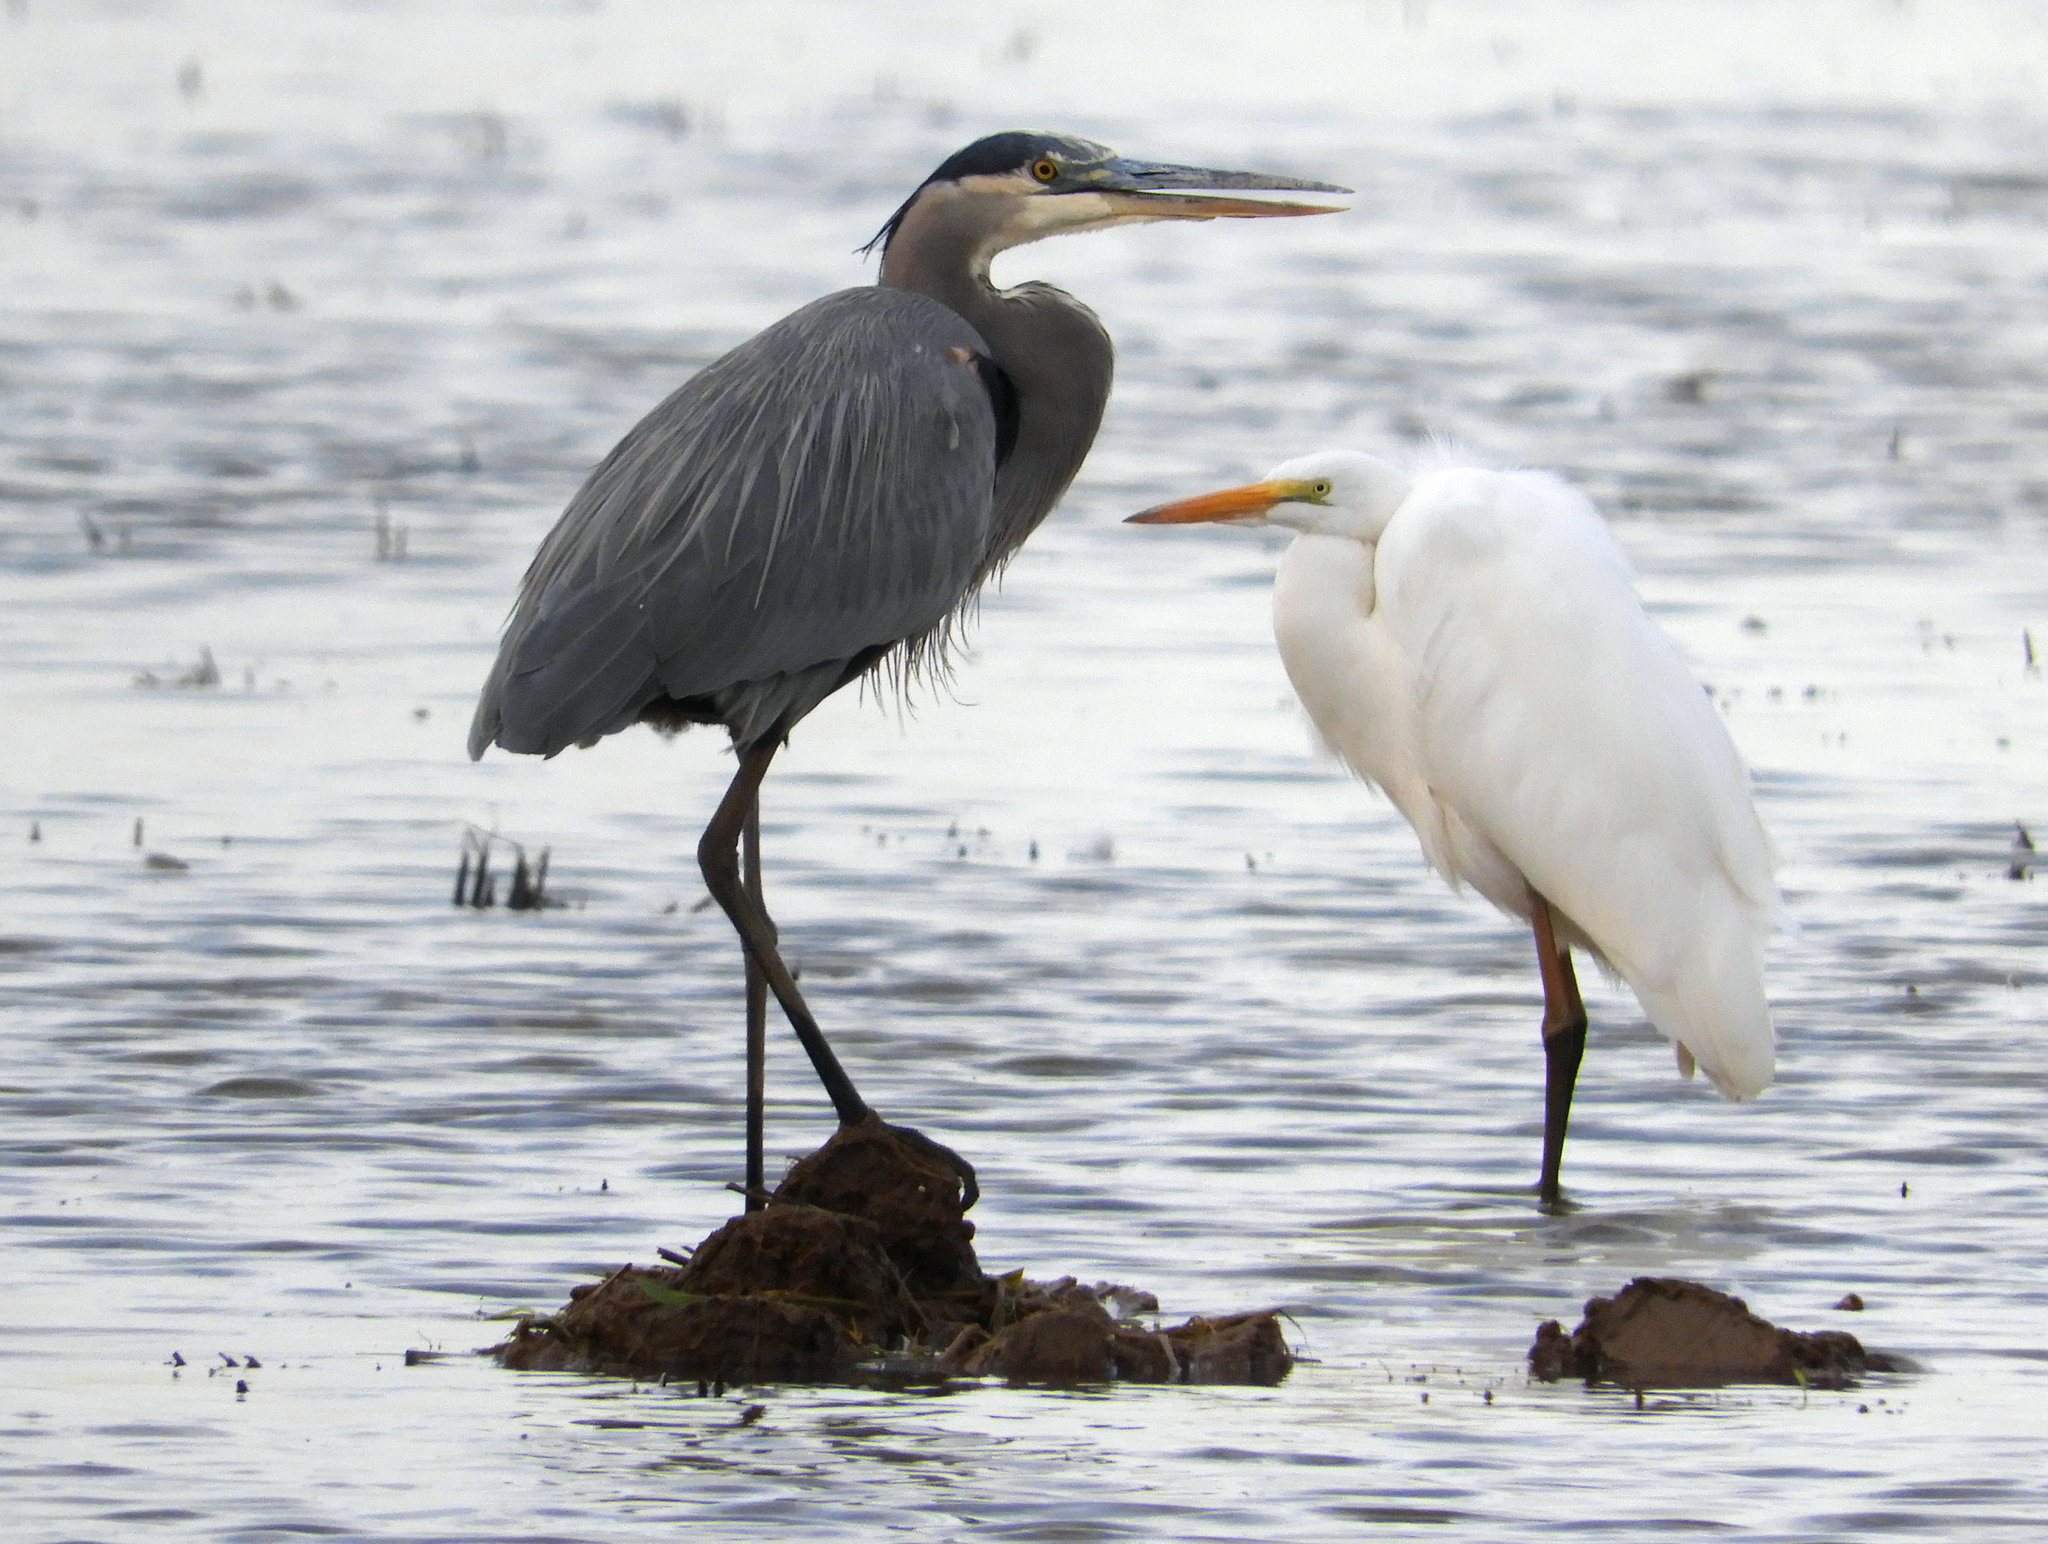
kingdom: Animalia
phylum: Chordata
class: Aves
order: Pelecaniformes
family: Ardeidae
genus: Ardea
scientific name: Ardea herodias
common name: Great blue heron
